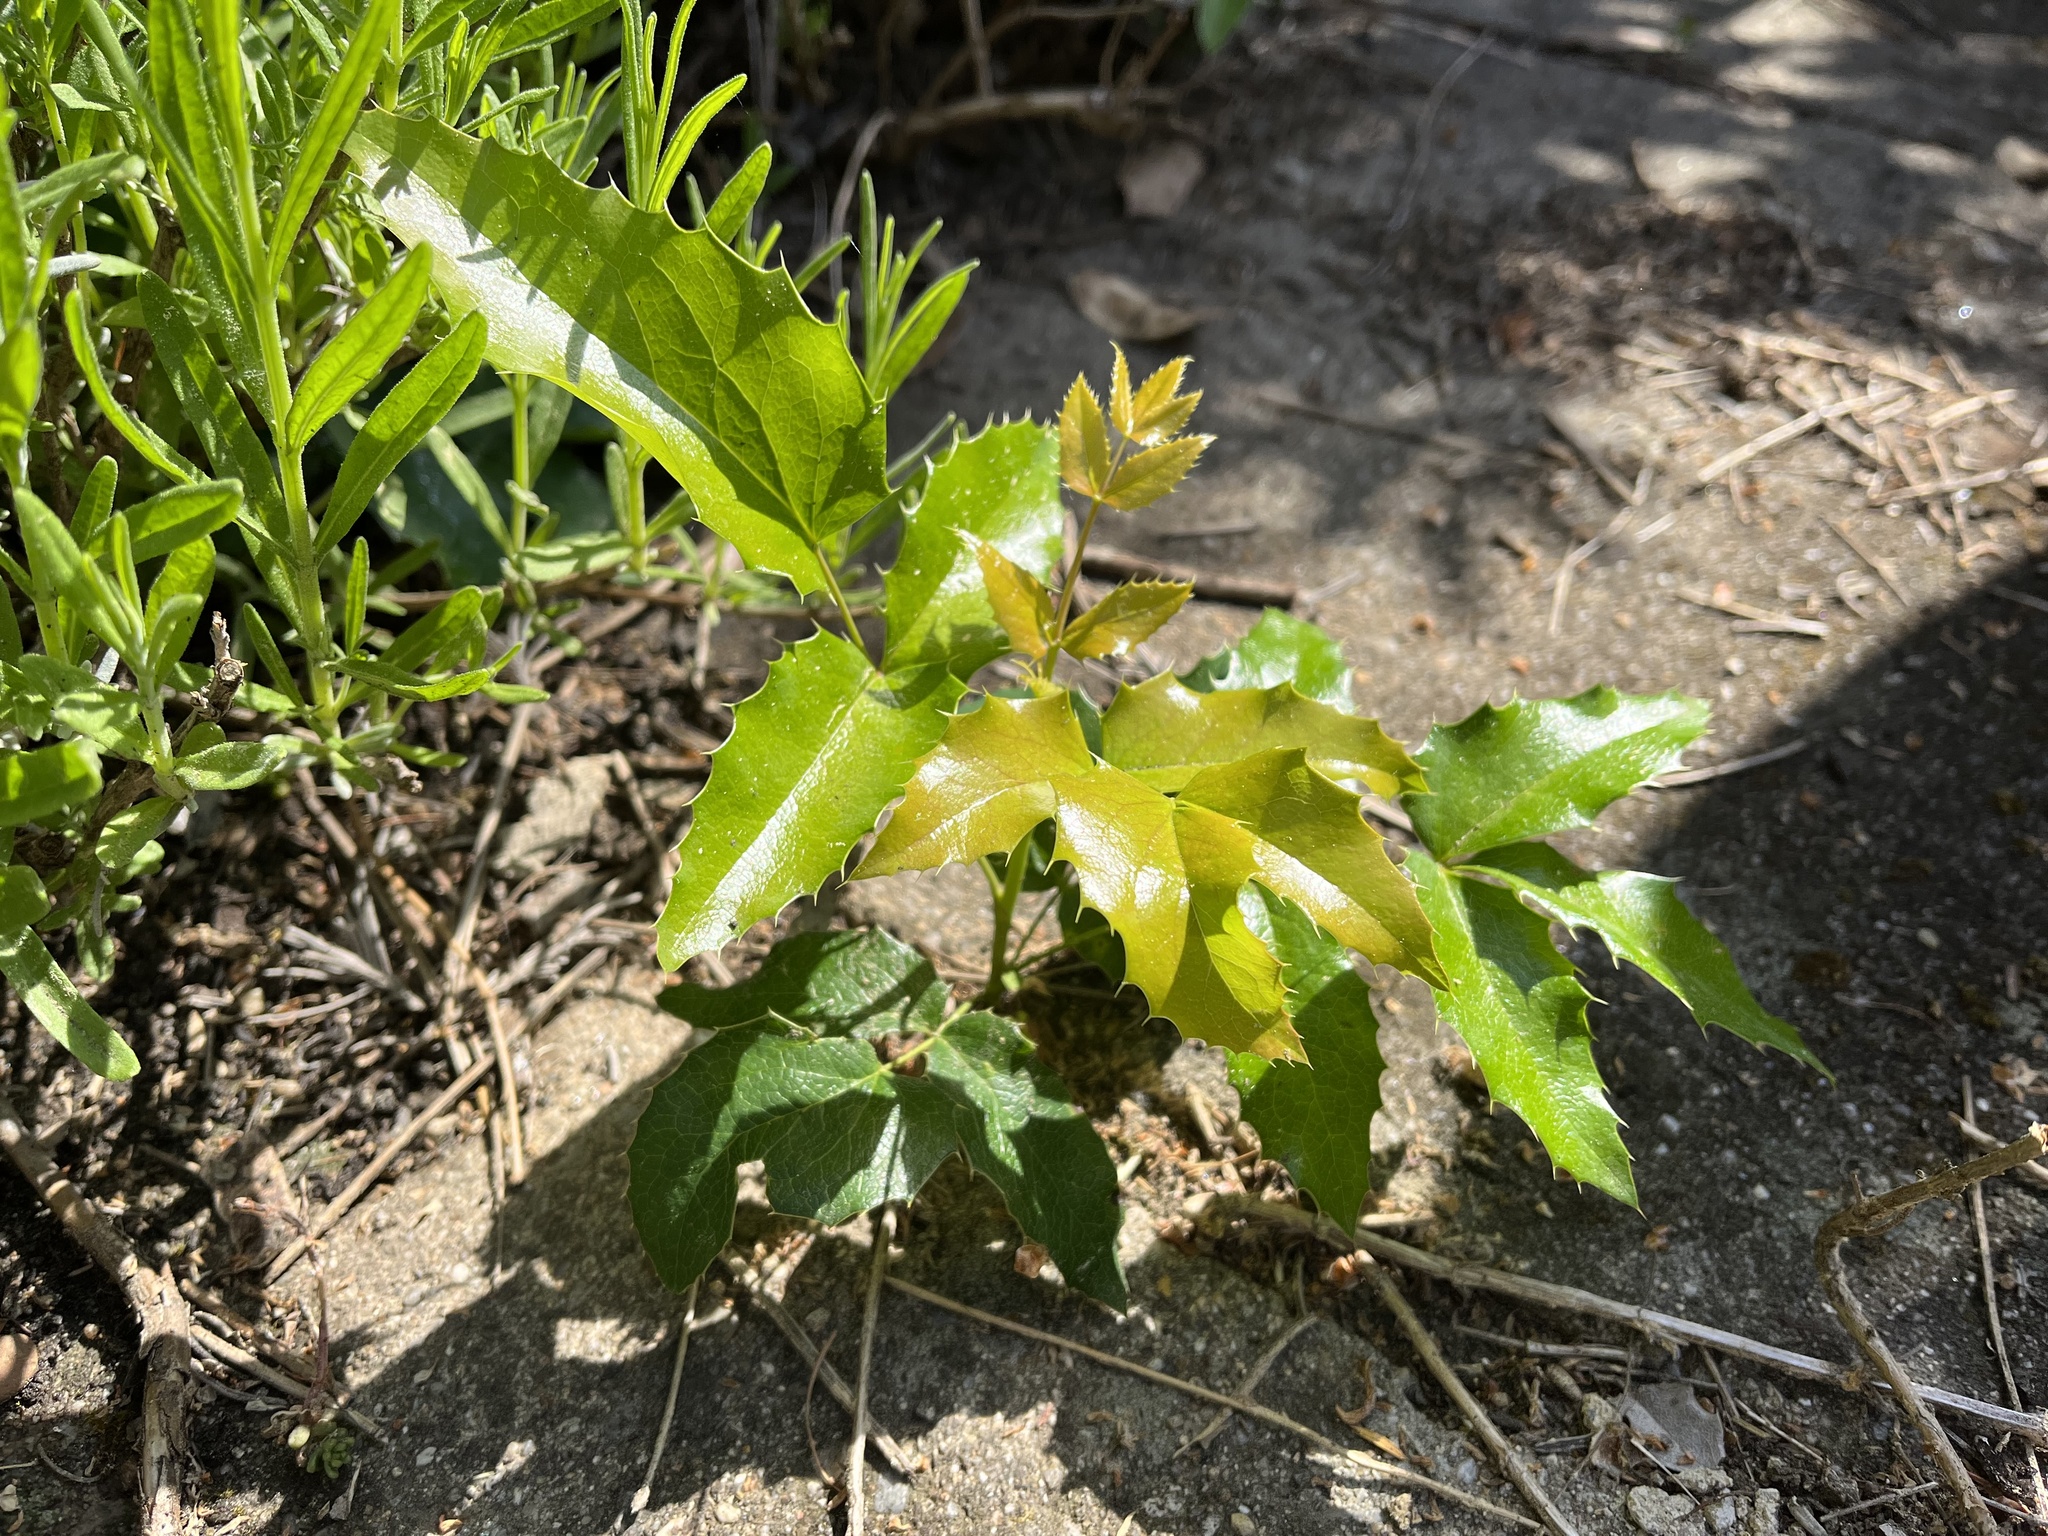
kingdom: Plantae
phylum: Tracheophyta
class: Magnoliopsida
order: Ranunculales
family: Berberidaceae
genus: Mahonia
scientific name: Mahonia aquifolium
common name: Oregon-grape
